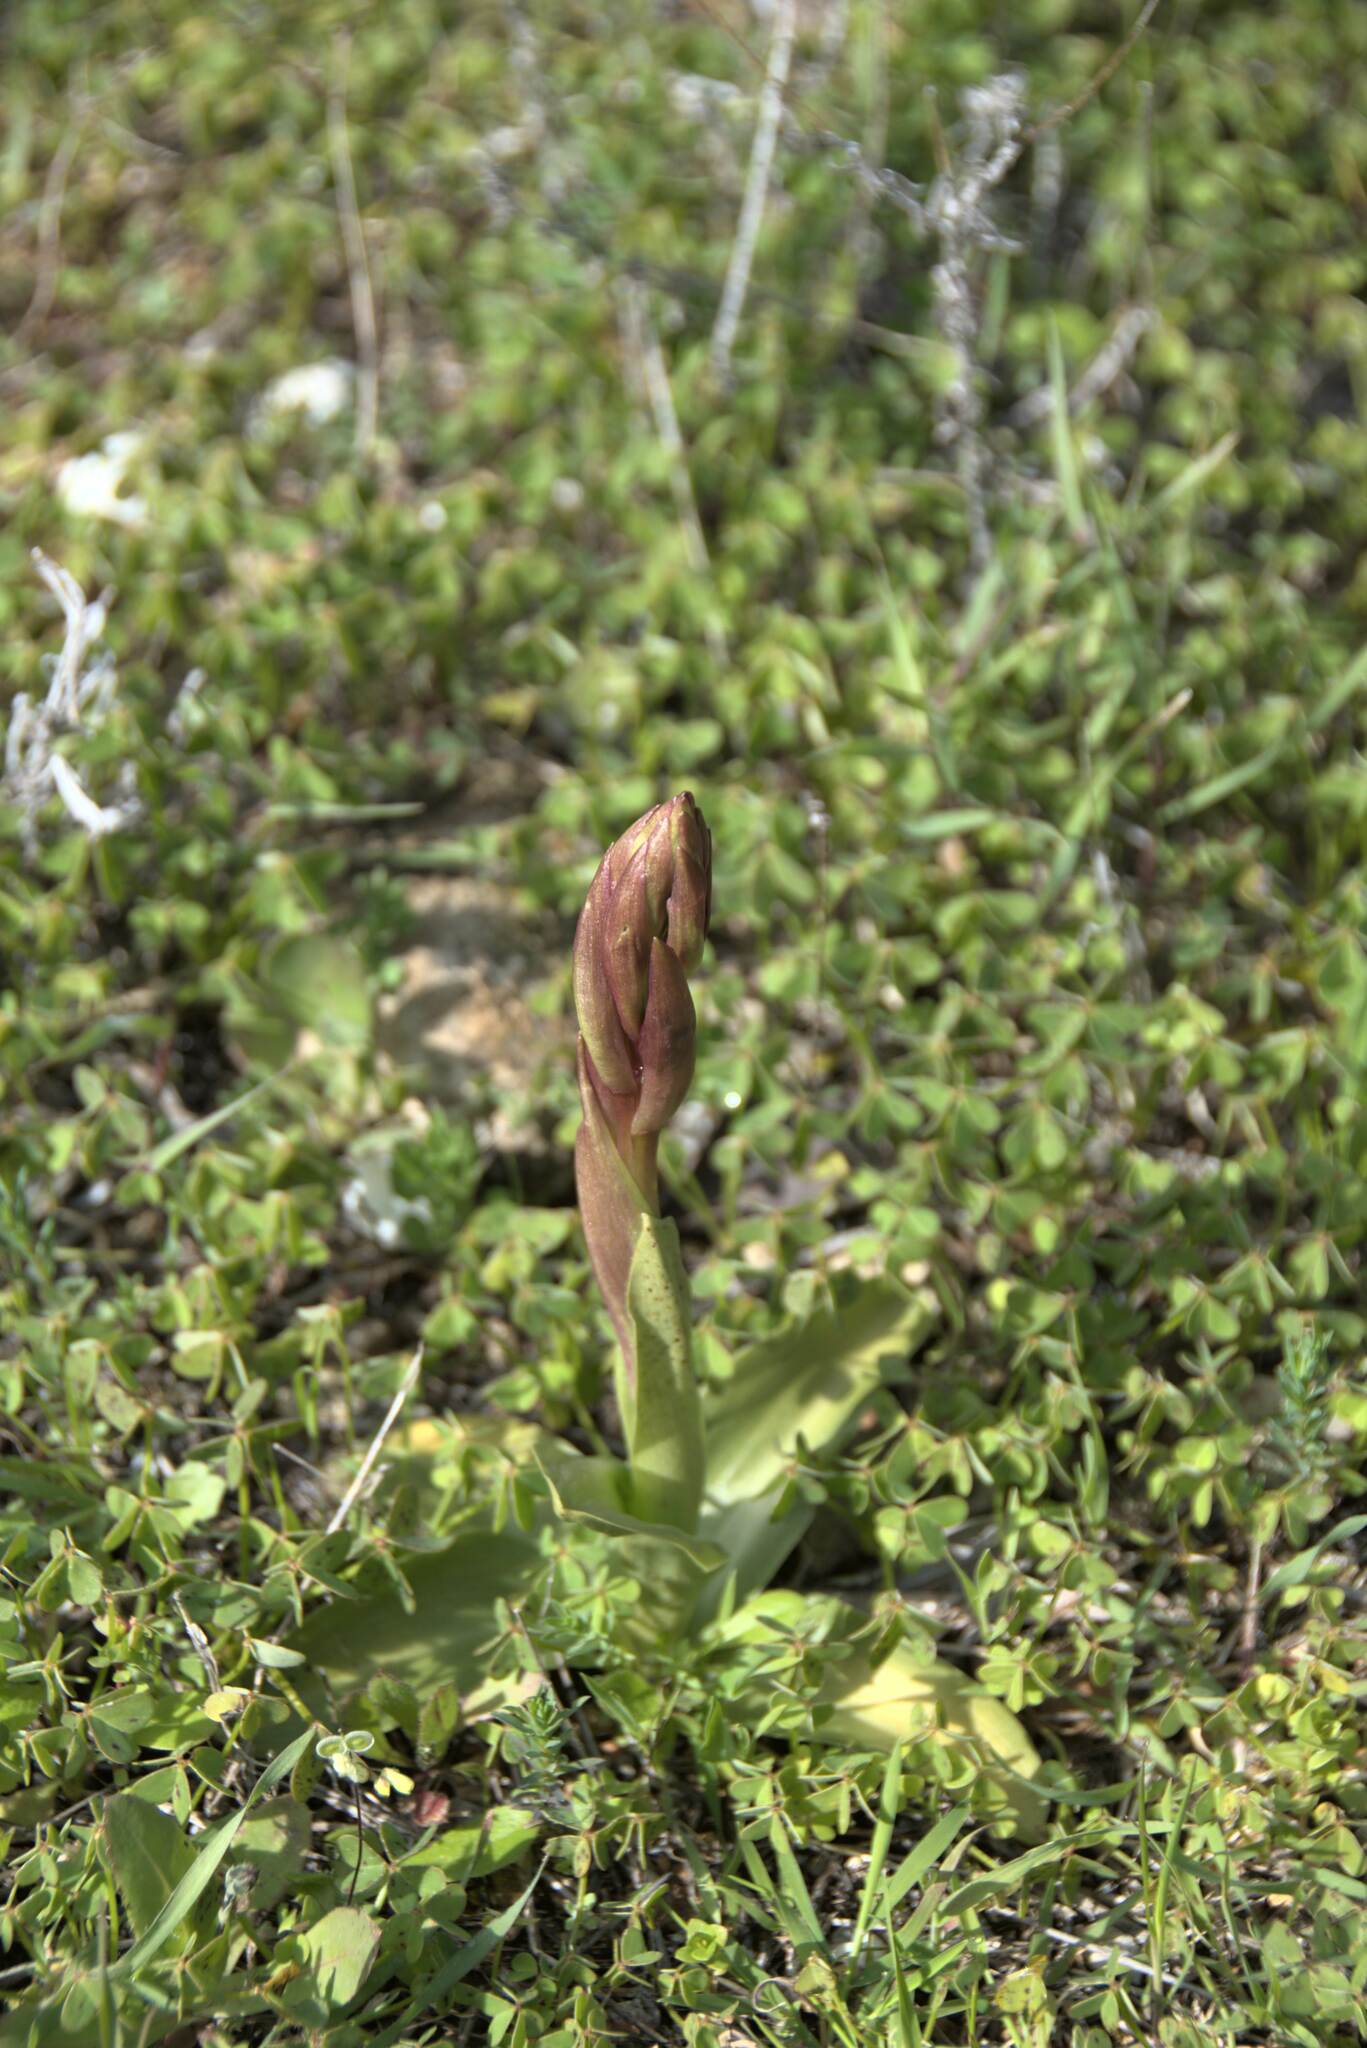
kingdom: Plantae
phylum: Tracheophyta
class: Liliopsida
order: Asparagales
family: Orchidaceae
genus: Anacamptis
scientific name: Anacamptis collina
